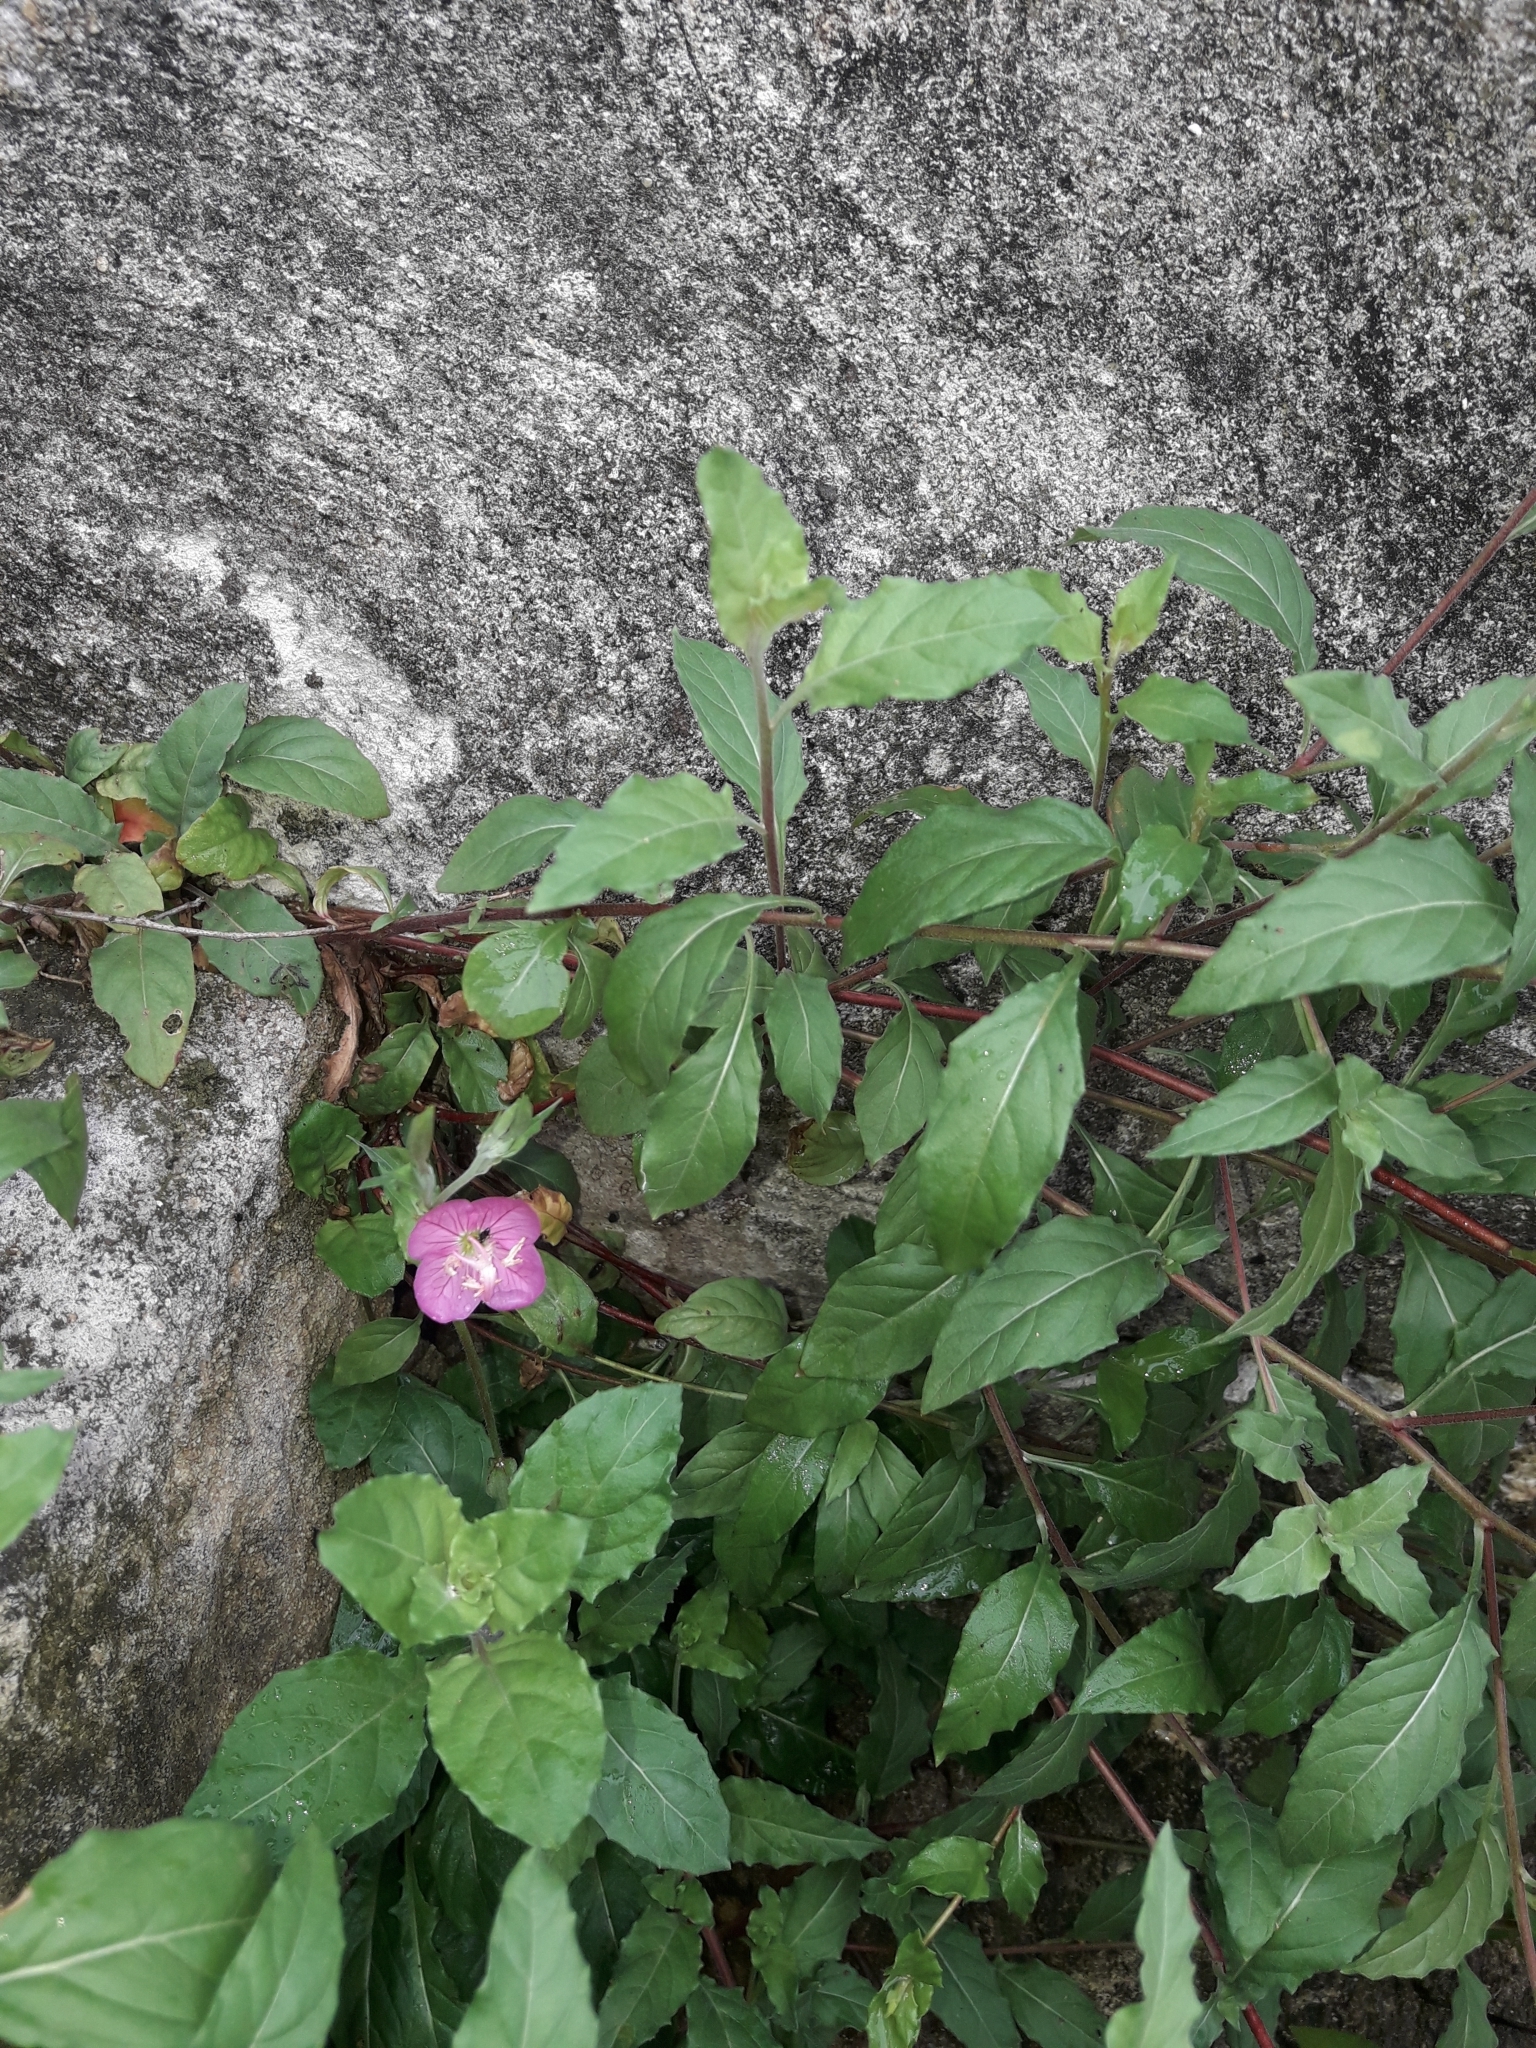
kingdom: Plantae
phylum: Tracheophyta
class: Magnoliopsida
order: Myrtales
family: Onagraceae
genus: Oenothera
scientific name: Oenothera rosea
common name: Rosy evening-primrose
